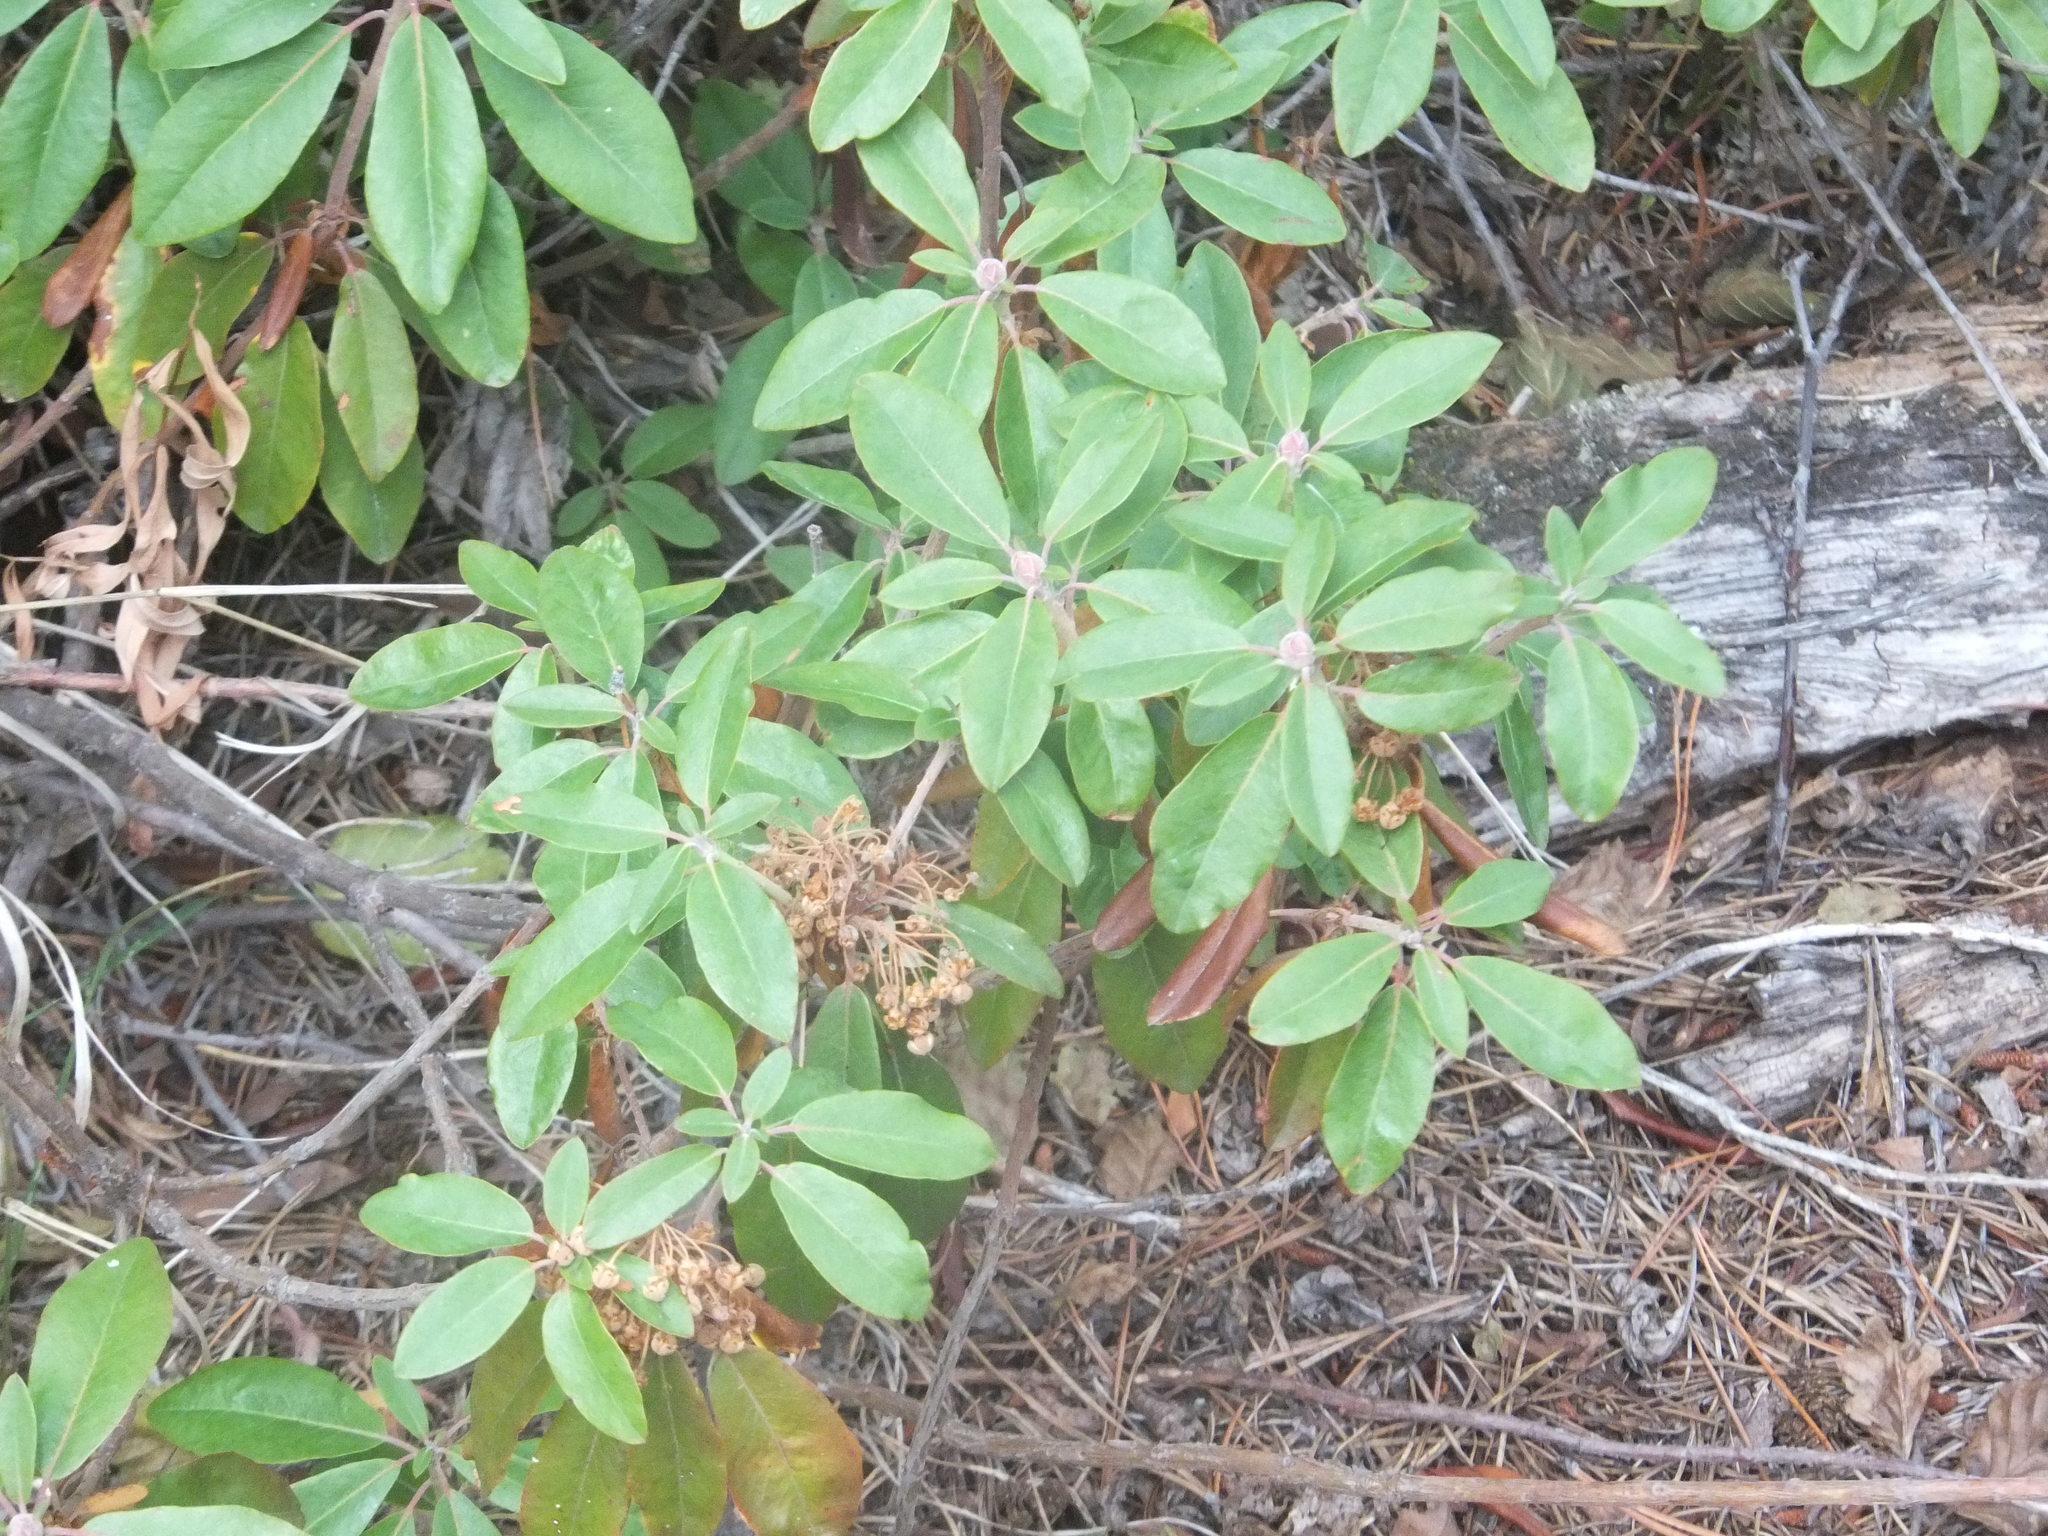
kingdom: Plantae
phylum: Tracheophyta
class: Magnoliopsida
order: Ericales
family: Ericaceae
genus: Rhododendron
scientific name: Rhododendron columbianum
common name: Western labrador tea
